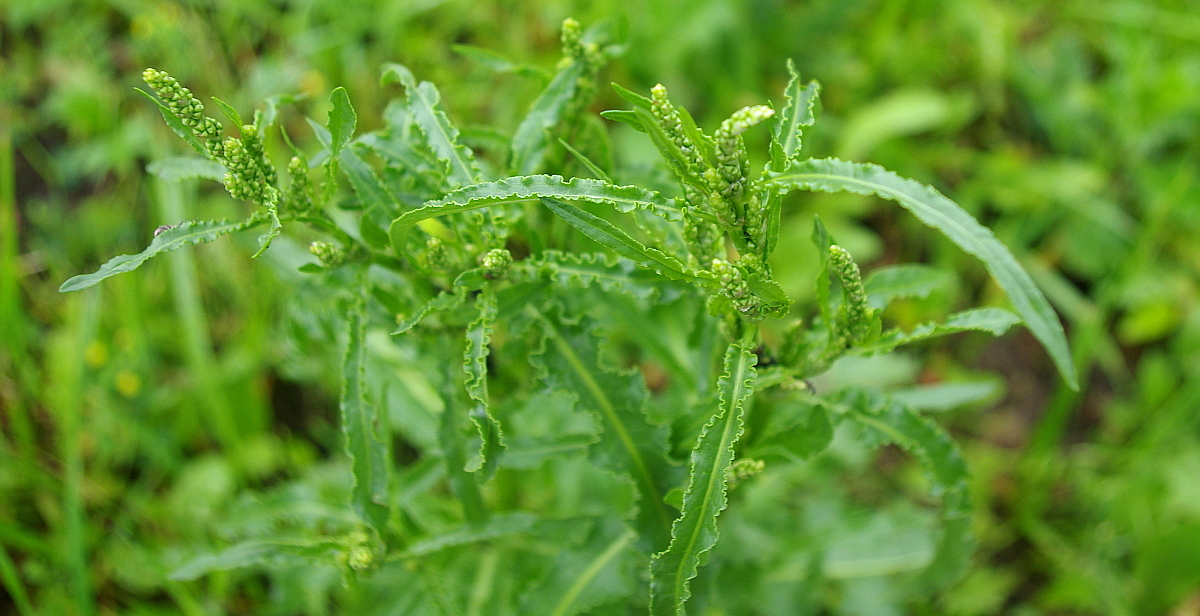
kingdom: Plantae
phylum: Tracheophyta
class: Magnoliopsida
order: Caryophyllales
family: Polygonaceae
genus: Rumex
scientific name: Rumex crispus
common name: Curled dock
